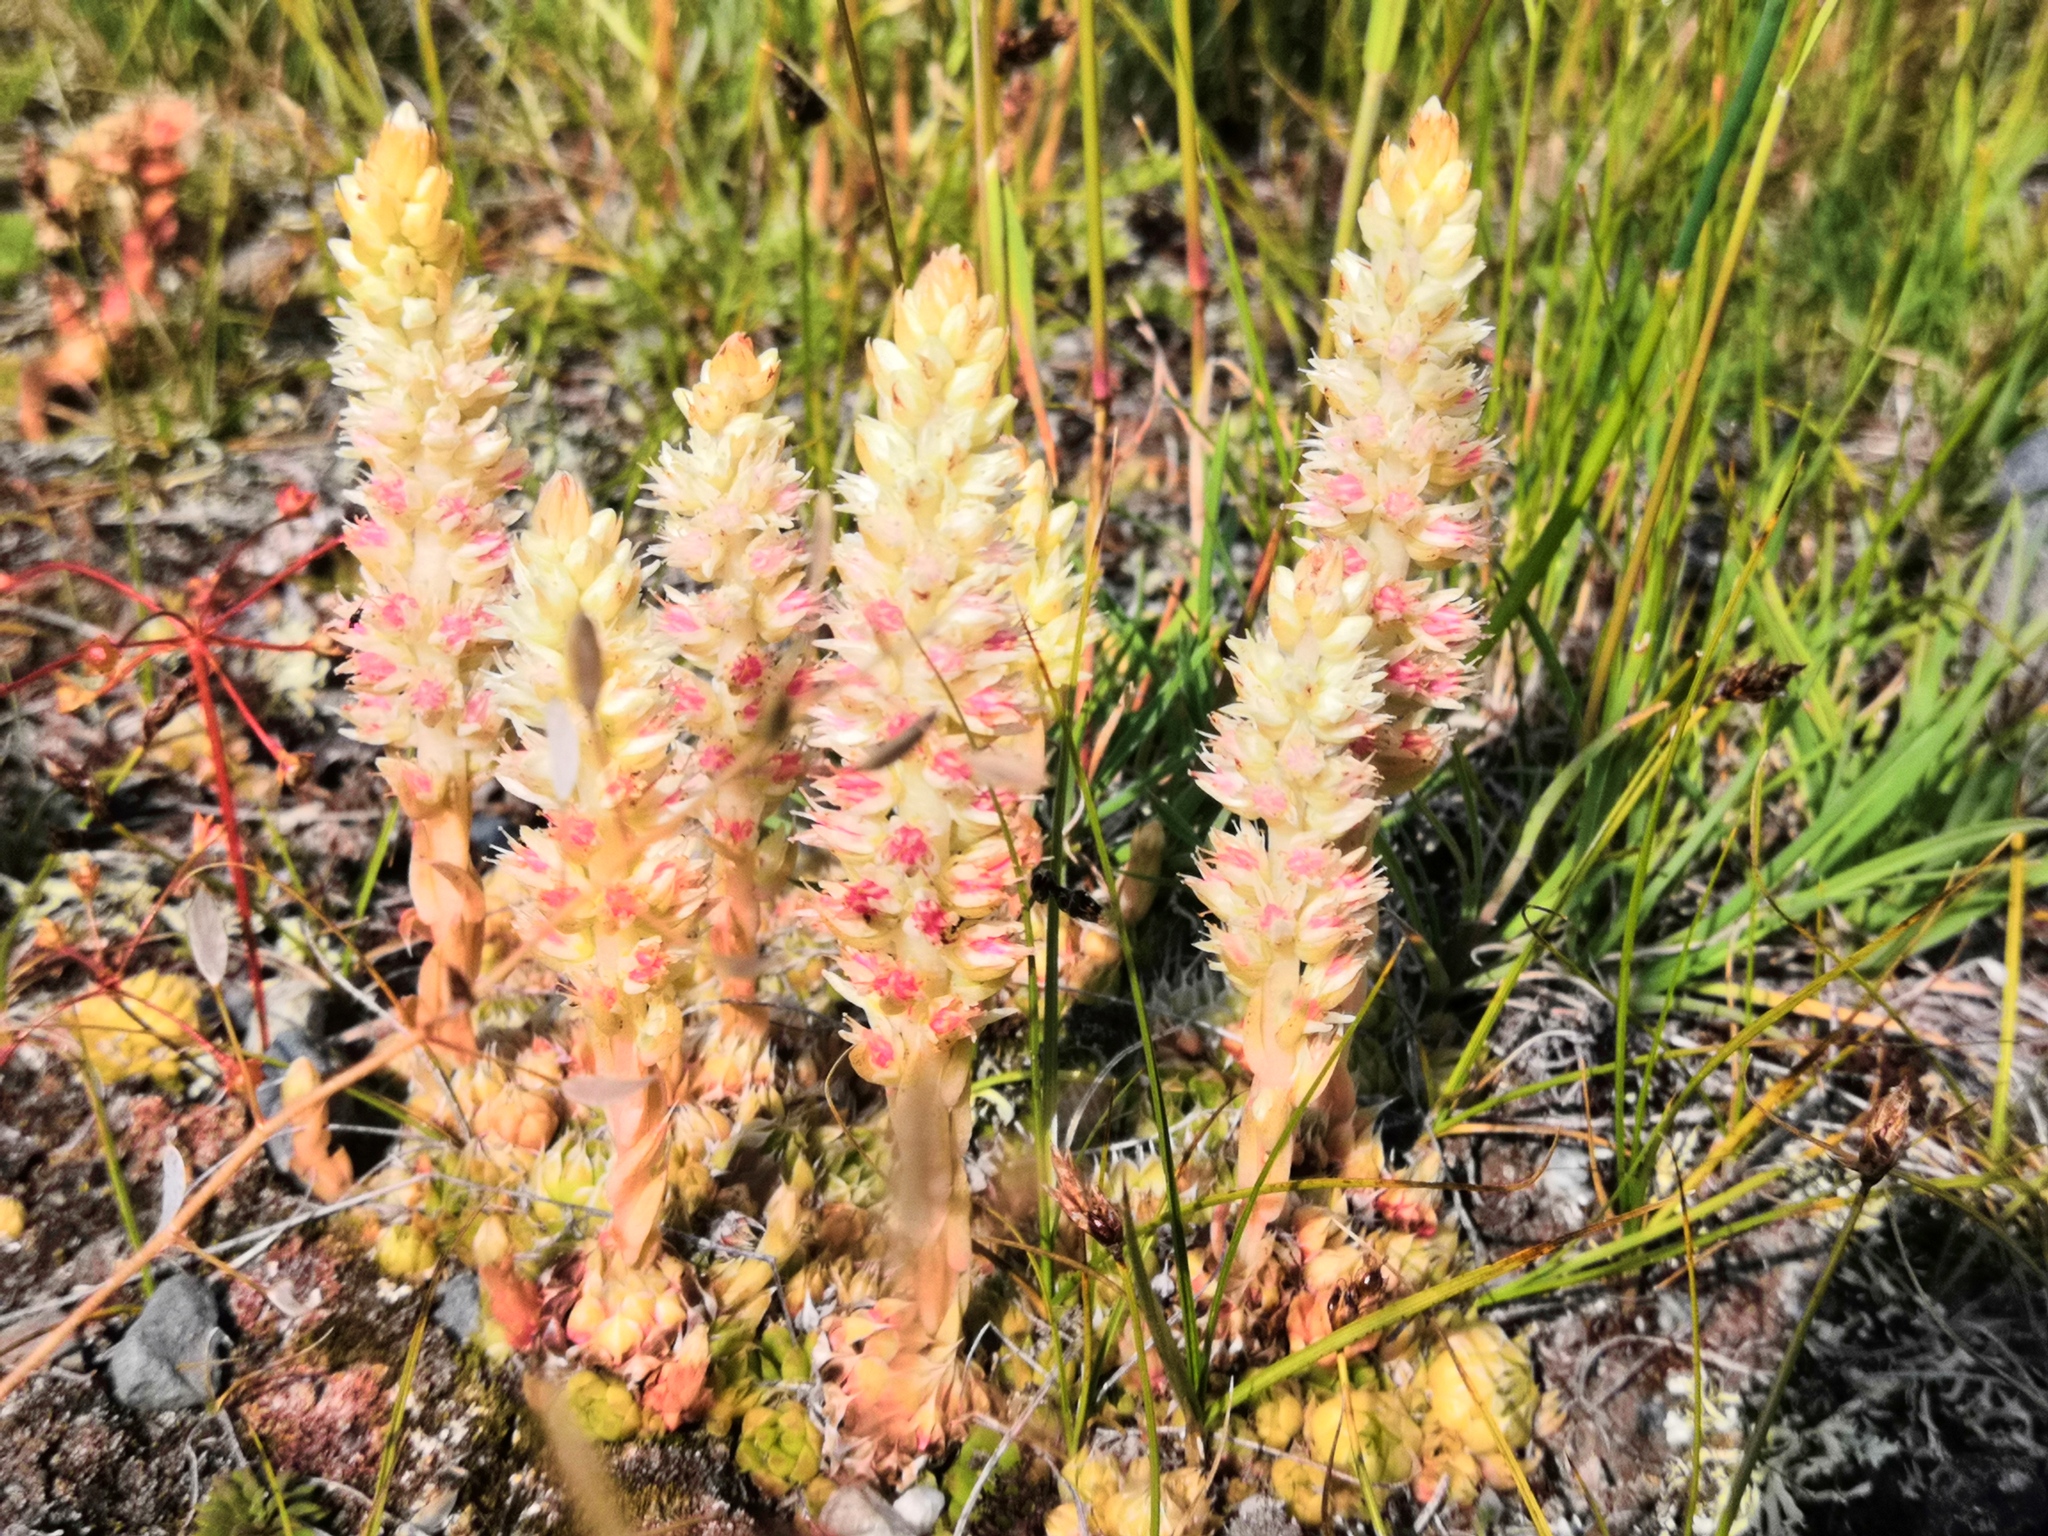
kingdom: Plantae
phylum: Tracheophyta
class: Magnoliopsida
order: Saxifragales
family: Crassulaceae
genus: Orostachys
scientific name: Orostachys spinosa
